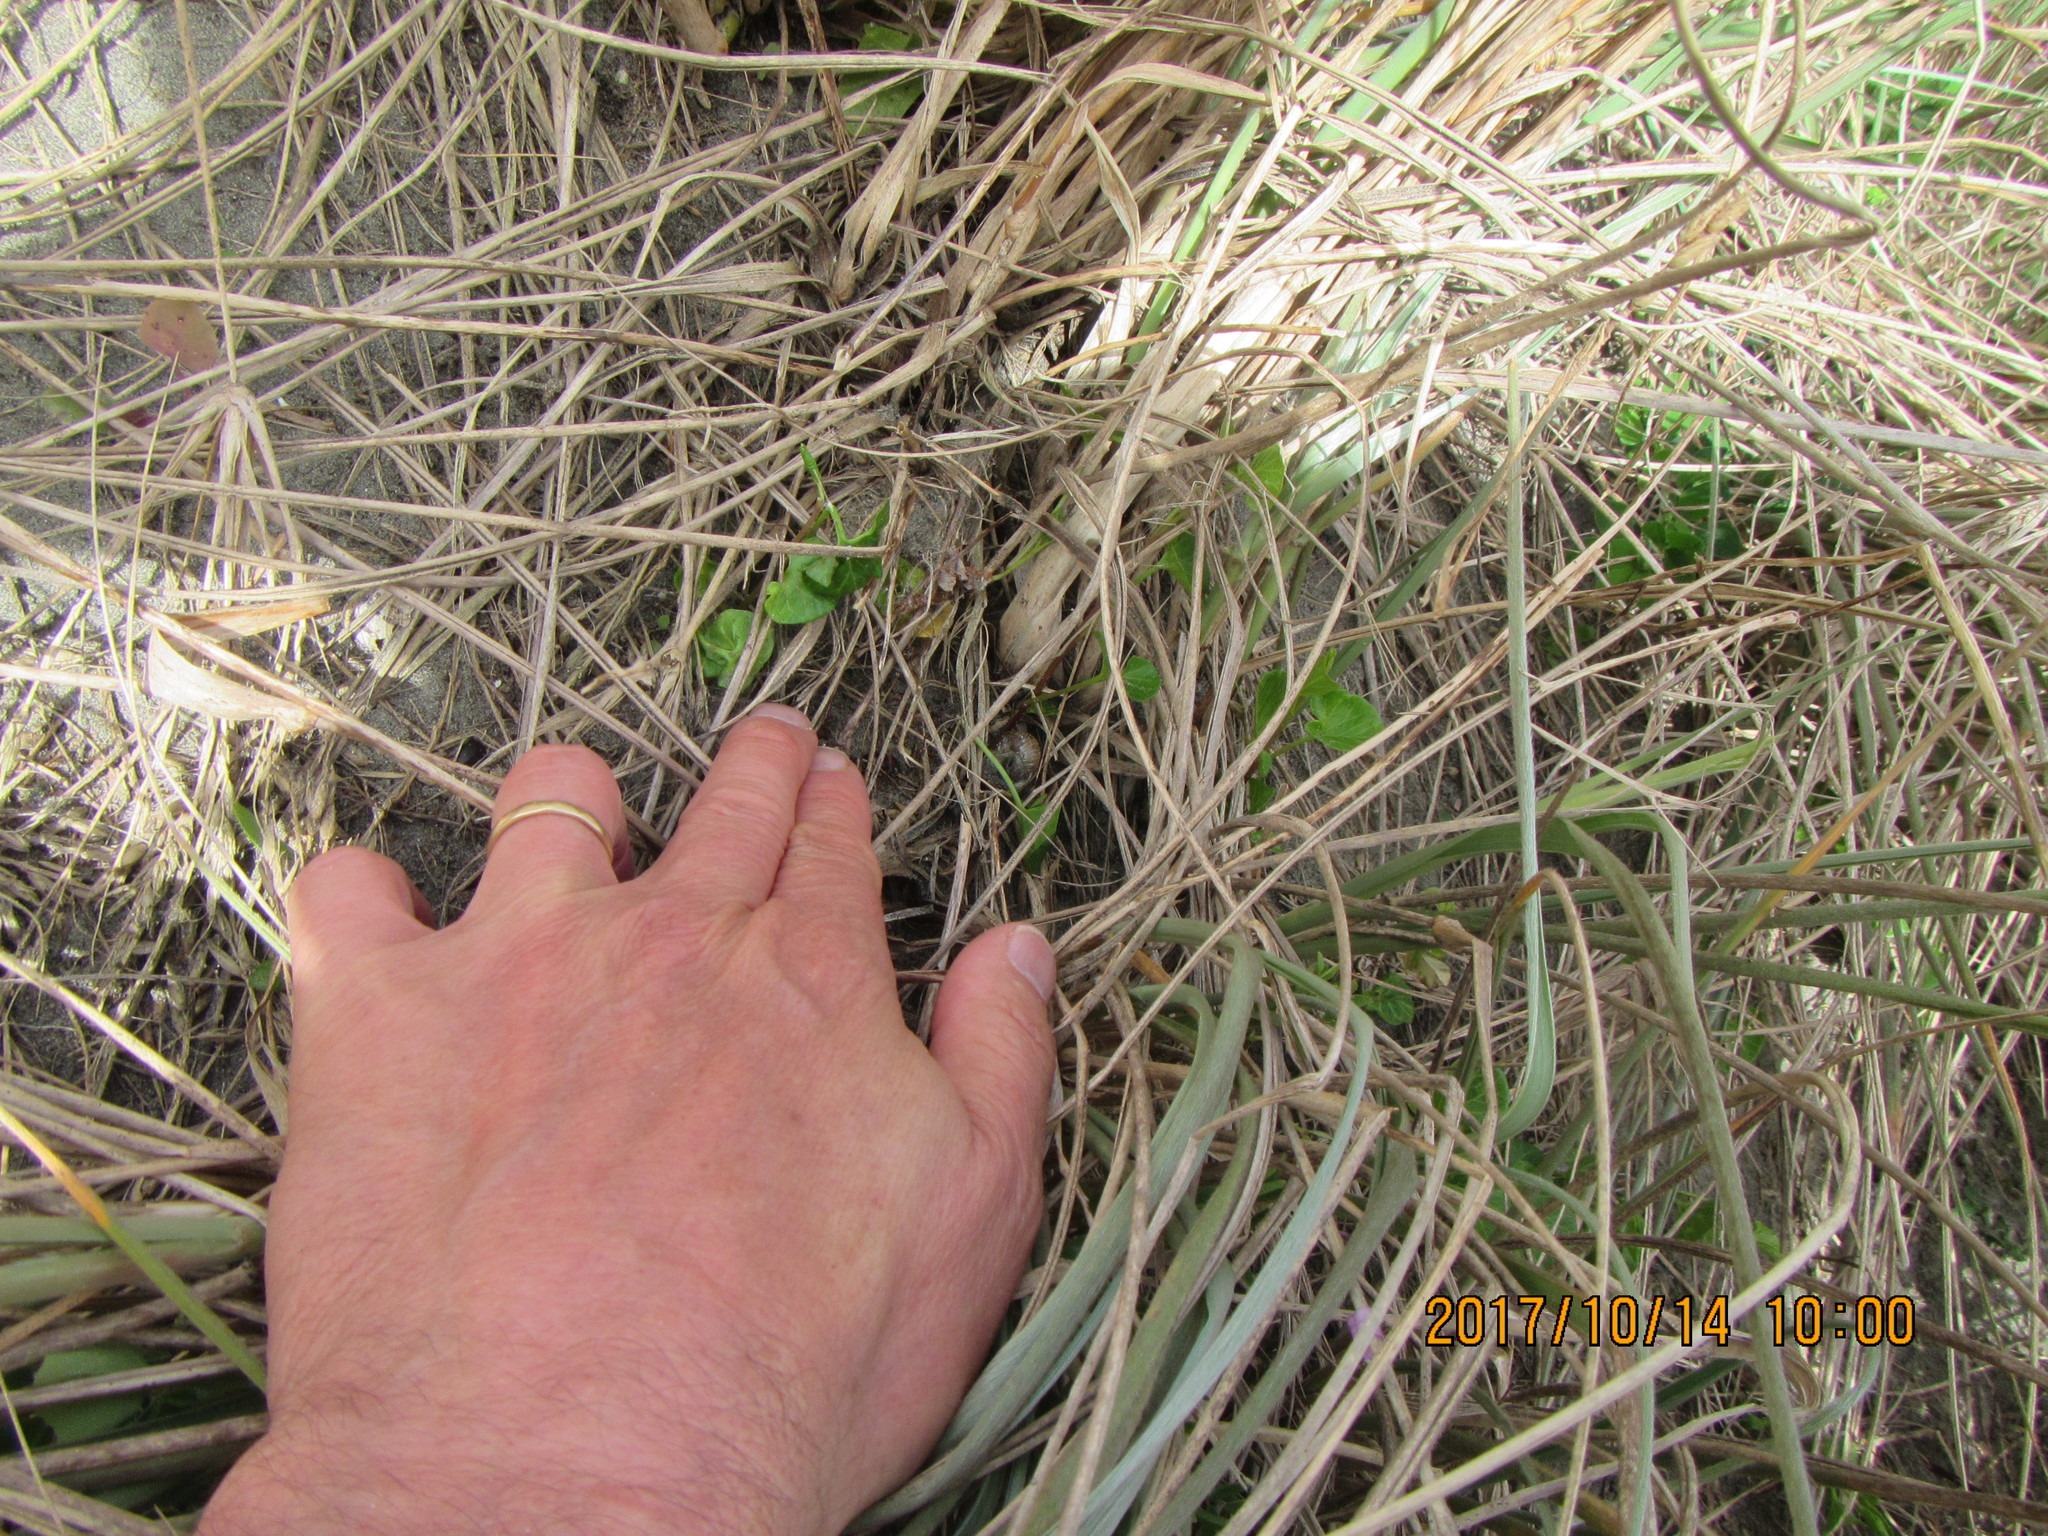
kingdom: Animalia
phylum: Arthropoda
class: Arachnida
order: Araneae
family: Theridiidae
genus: Latrodectus
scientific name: Latrodectus katipo
